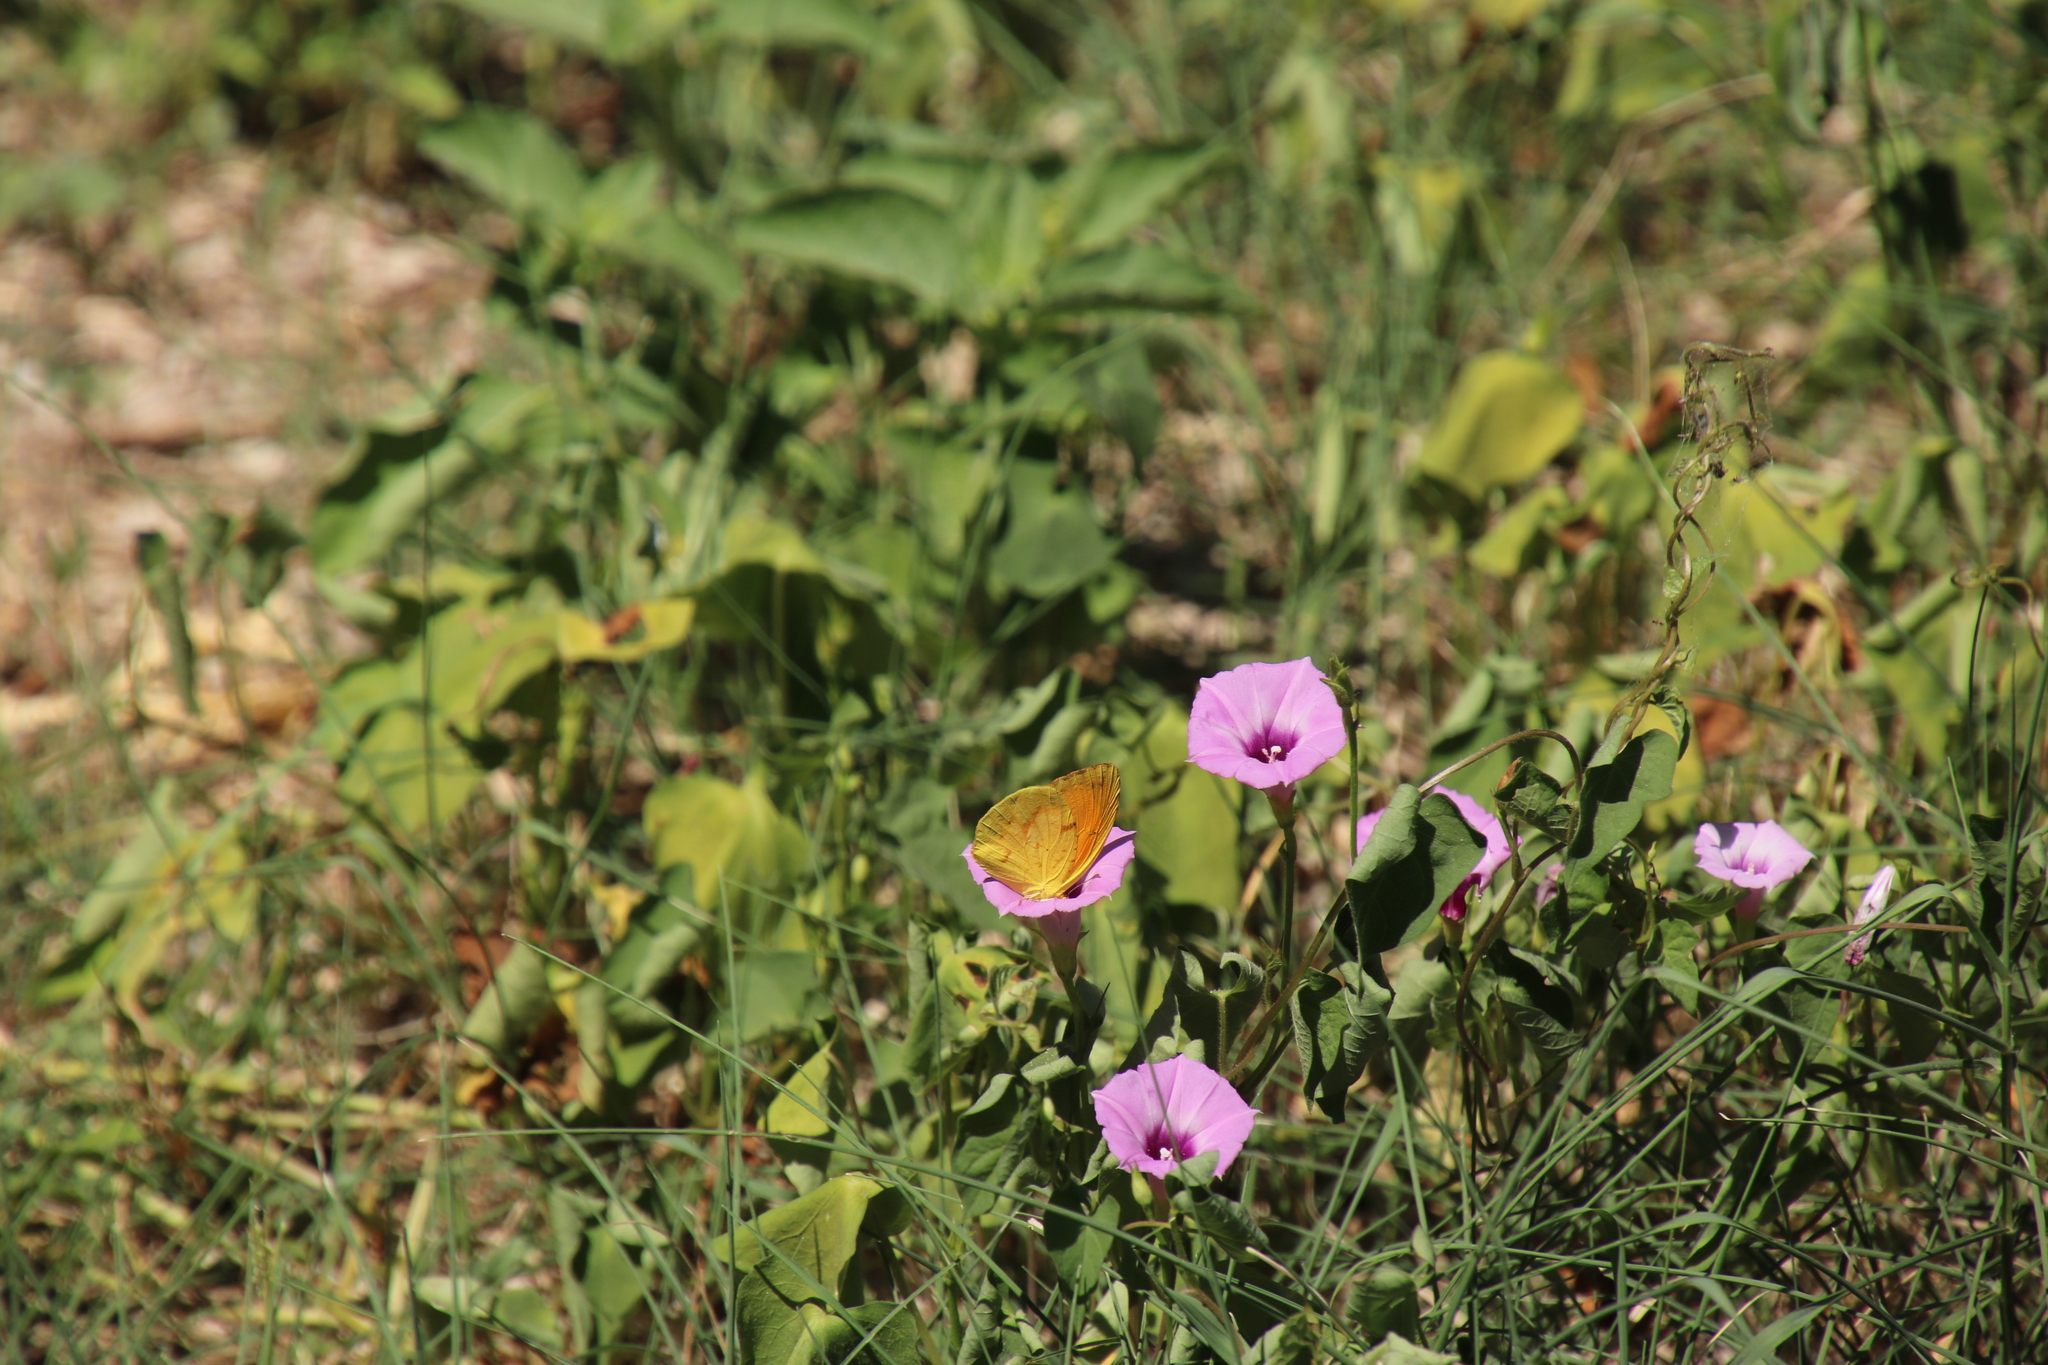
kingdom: Animalia
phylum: Arthropoda
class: Insecta
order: Lepidoptera
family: Pieridae
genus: Abaeis
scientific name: Abaeis nicippe
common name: Sleepy orange
